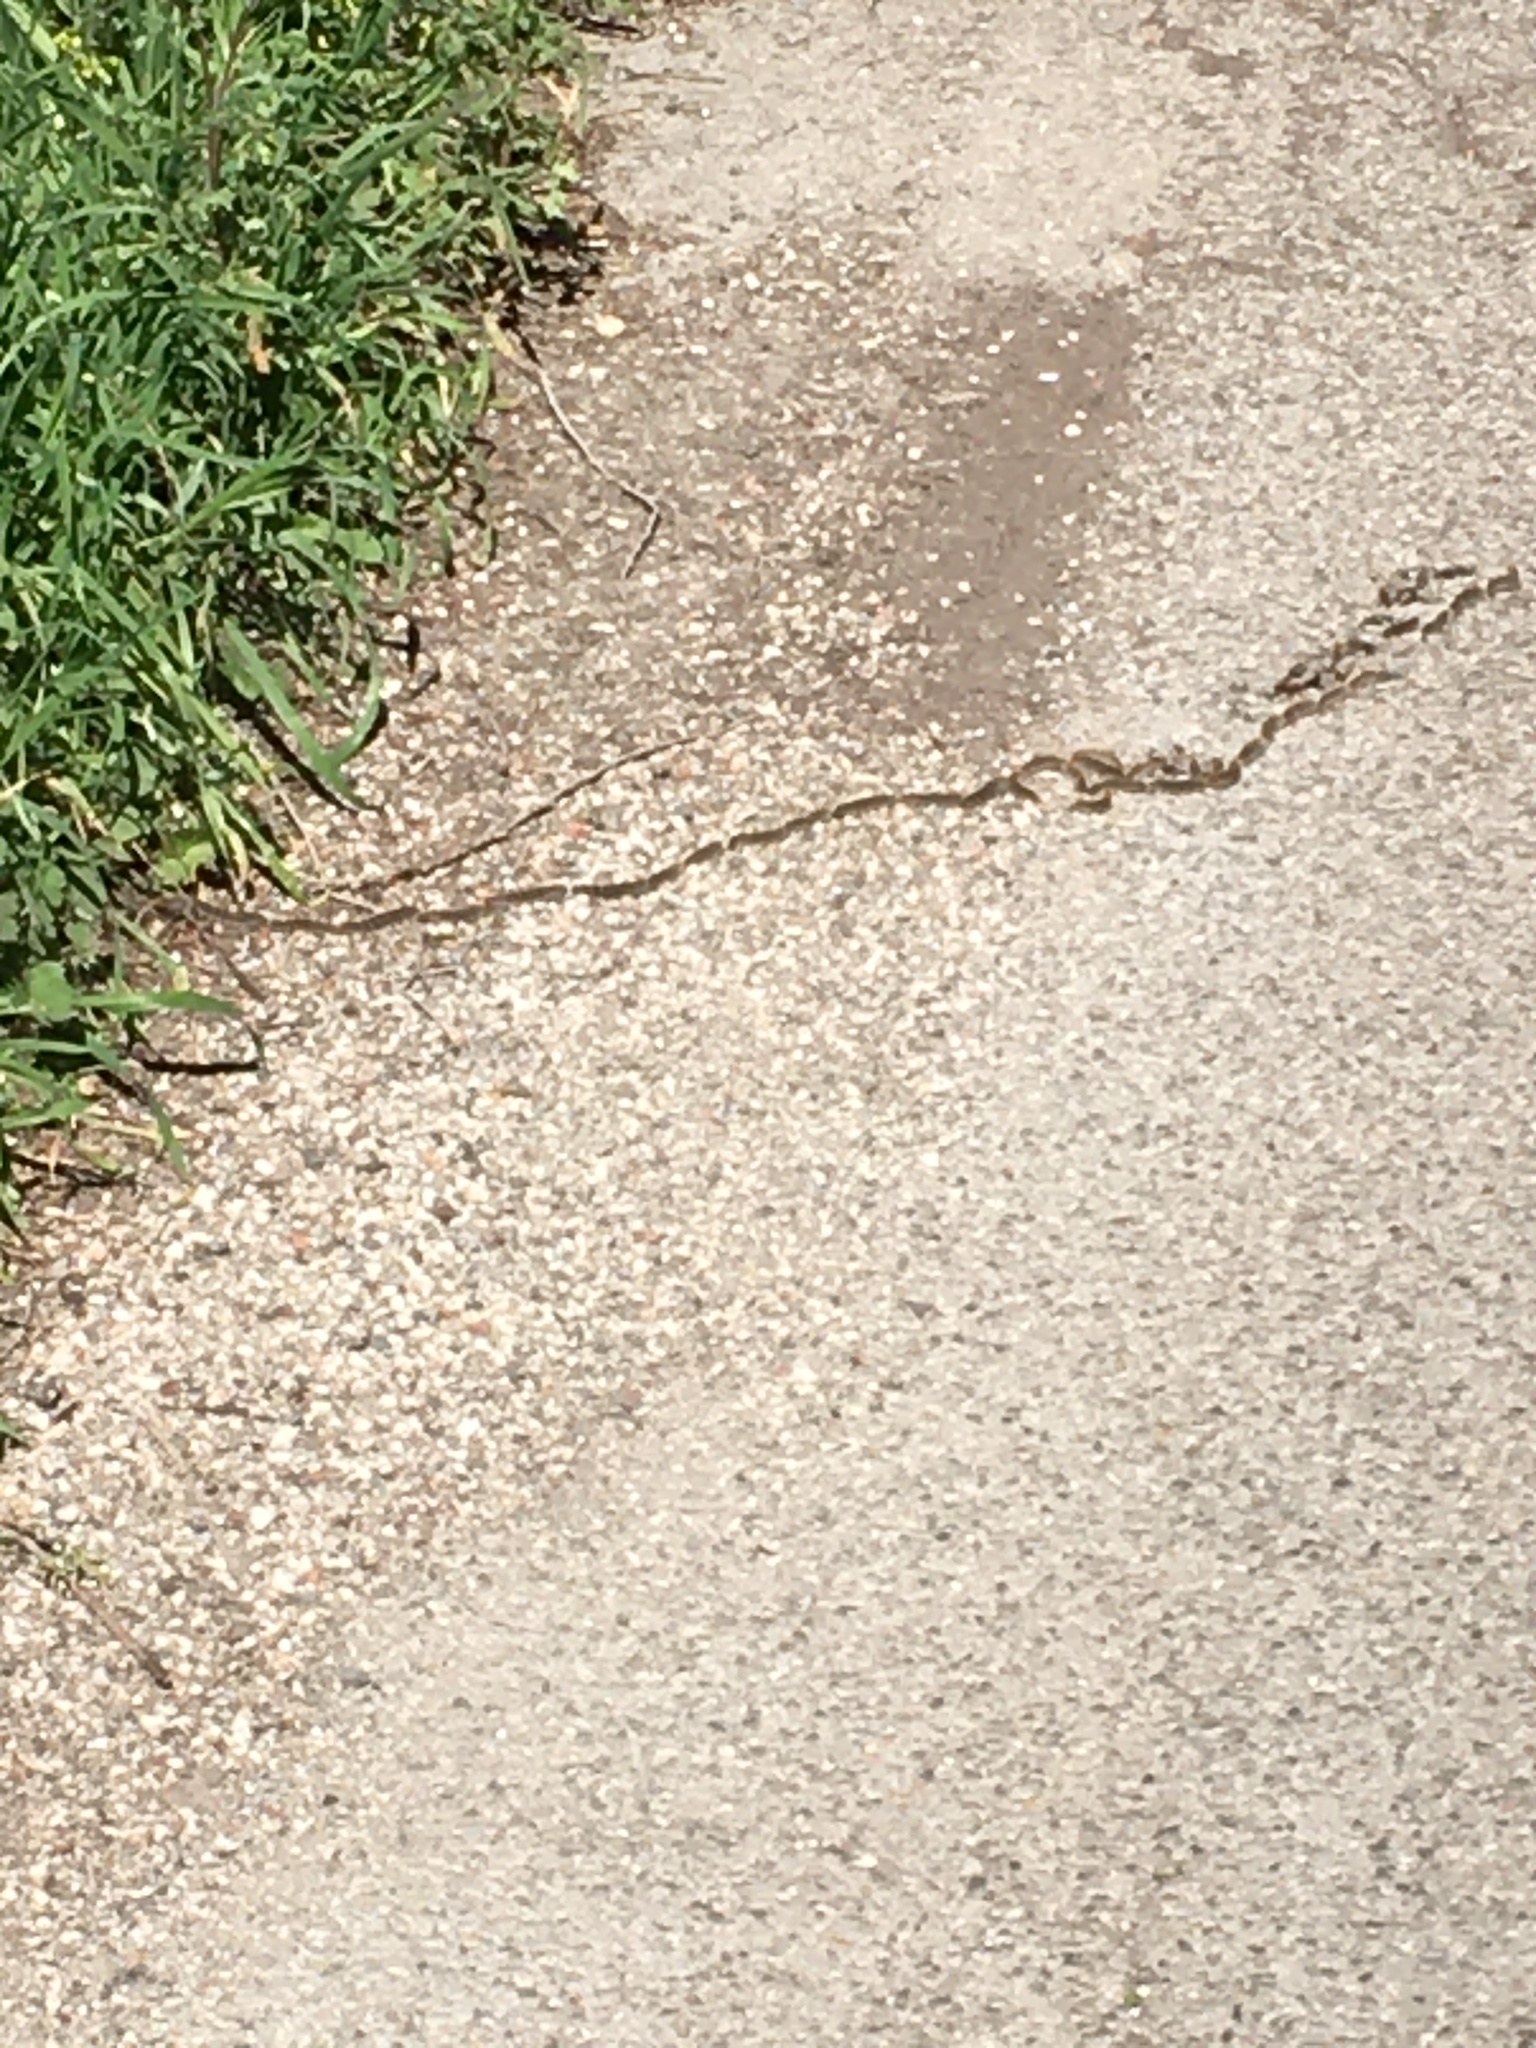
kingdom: Animalia
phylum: Arthropoda
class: Insecta
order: Lepidoptera
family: Notodontidae
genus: Thaumetopoea
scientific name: Thaumetopoea pityocampa
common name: Pine processionary
